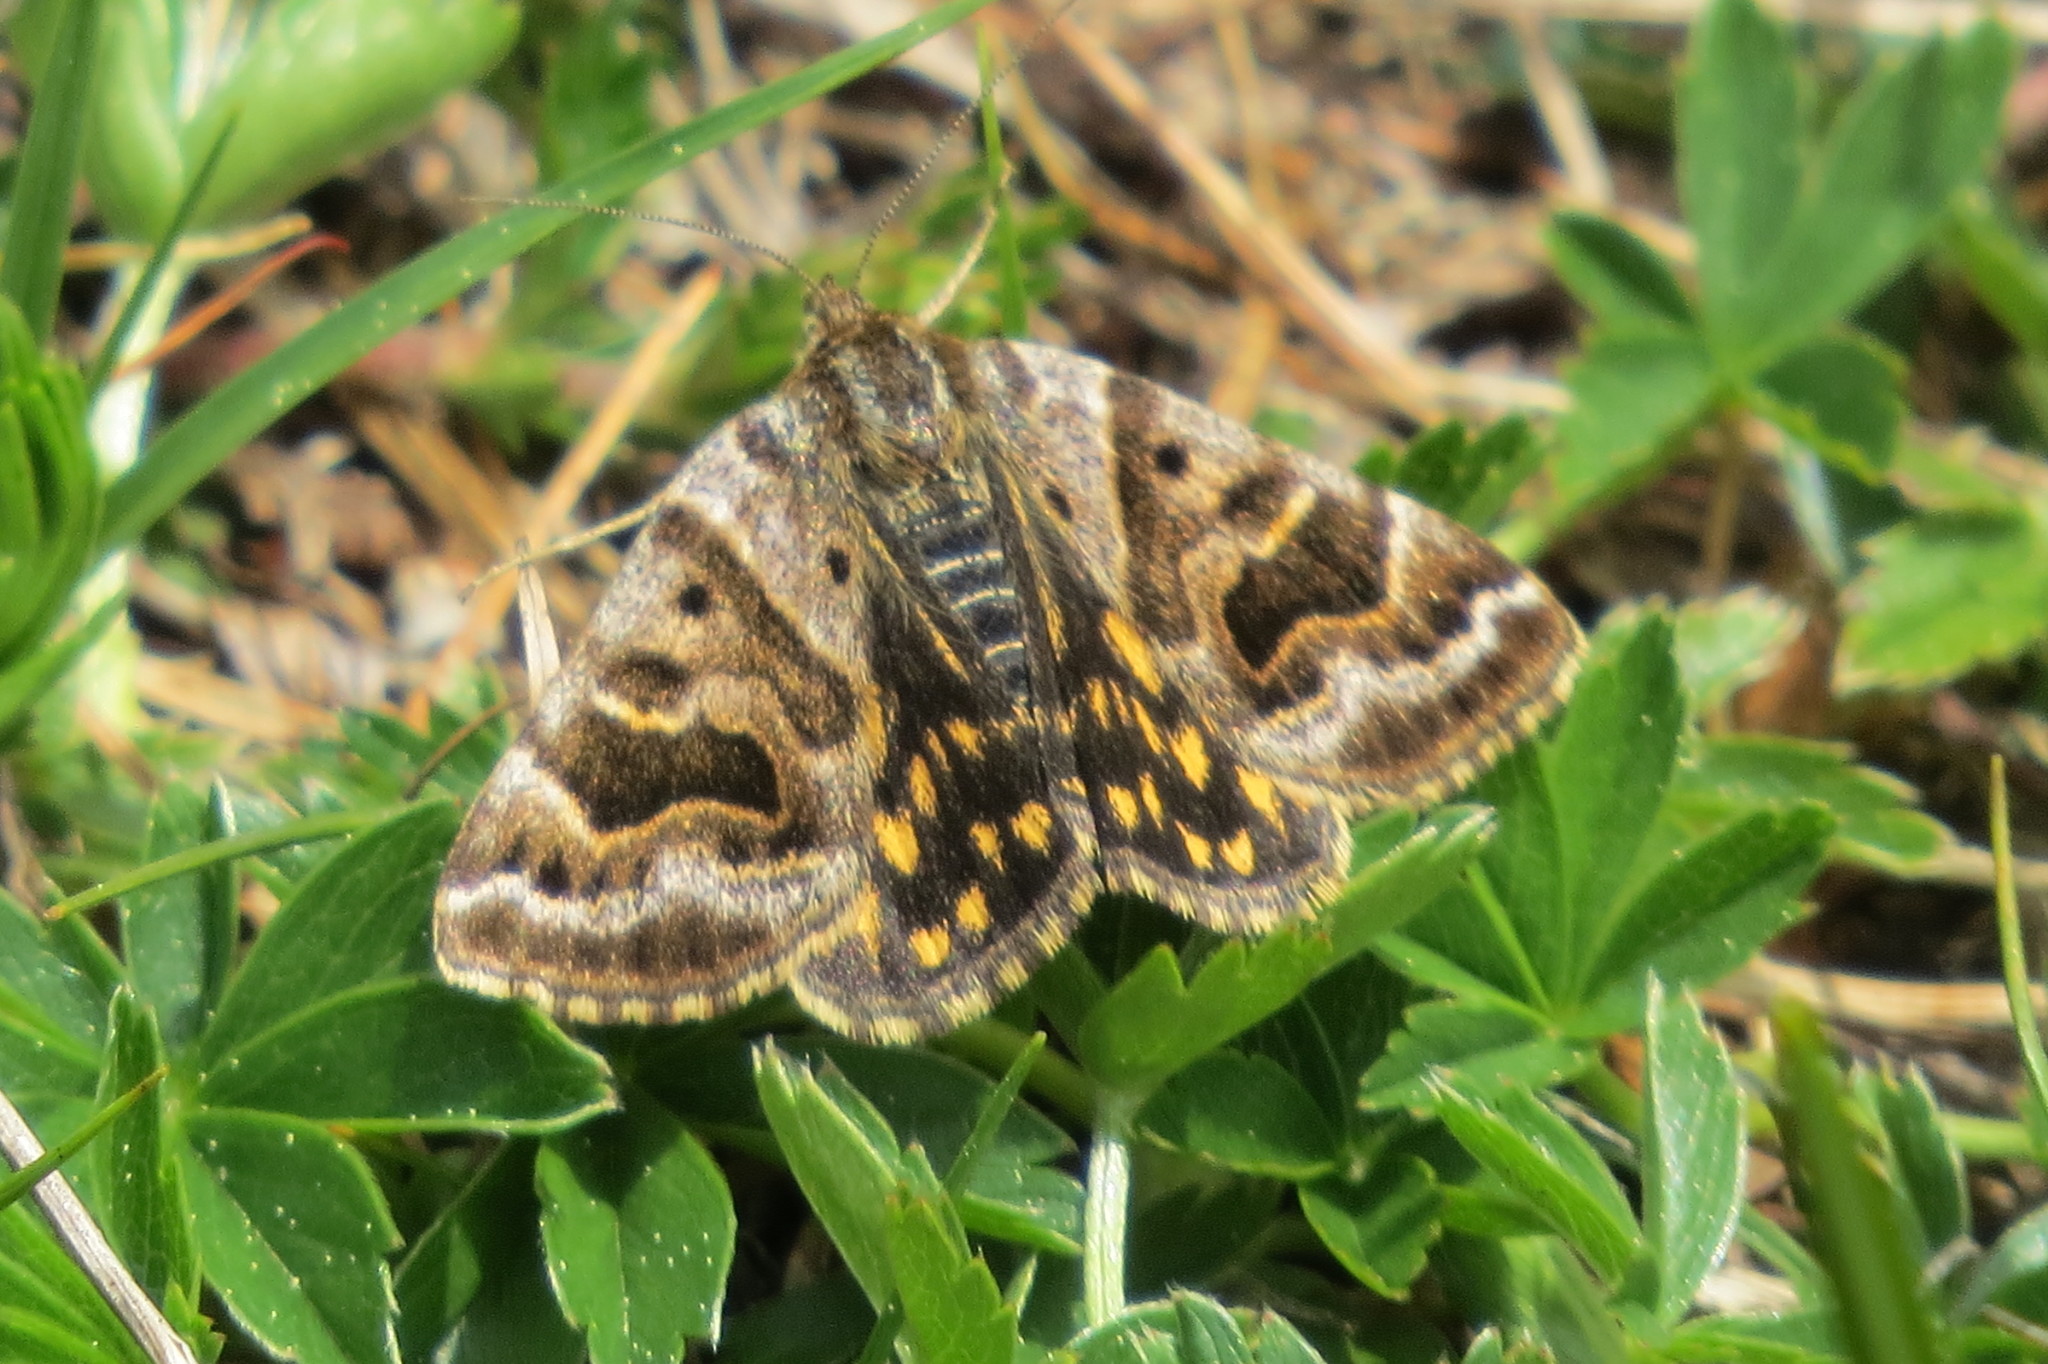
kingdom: Animalia
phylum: Arthropoda
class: Insecta
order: Lepidoptera
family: Erebidae
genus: Callistege
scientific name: Callistege mi
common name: Mother shipton
